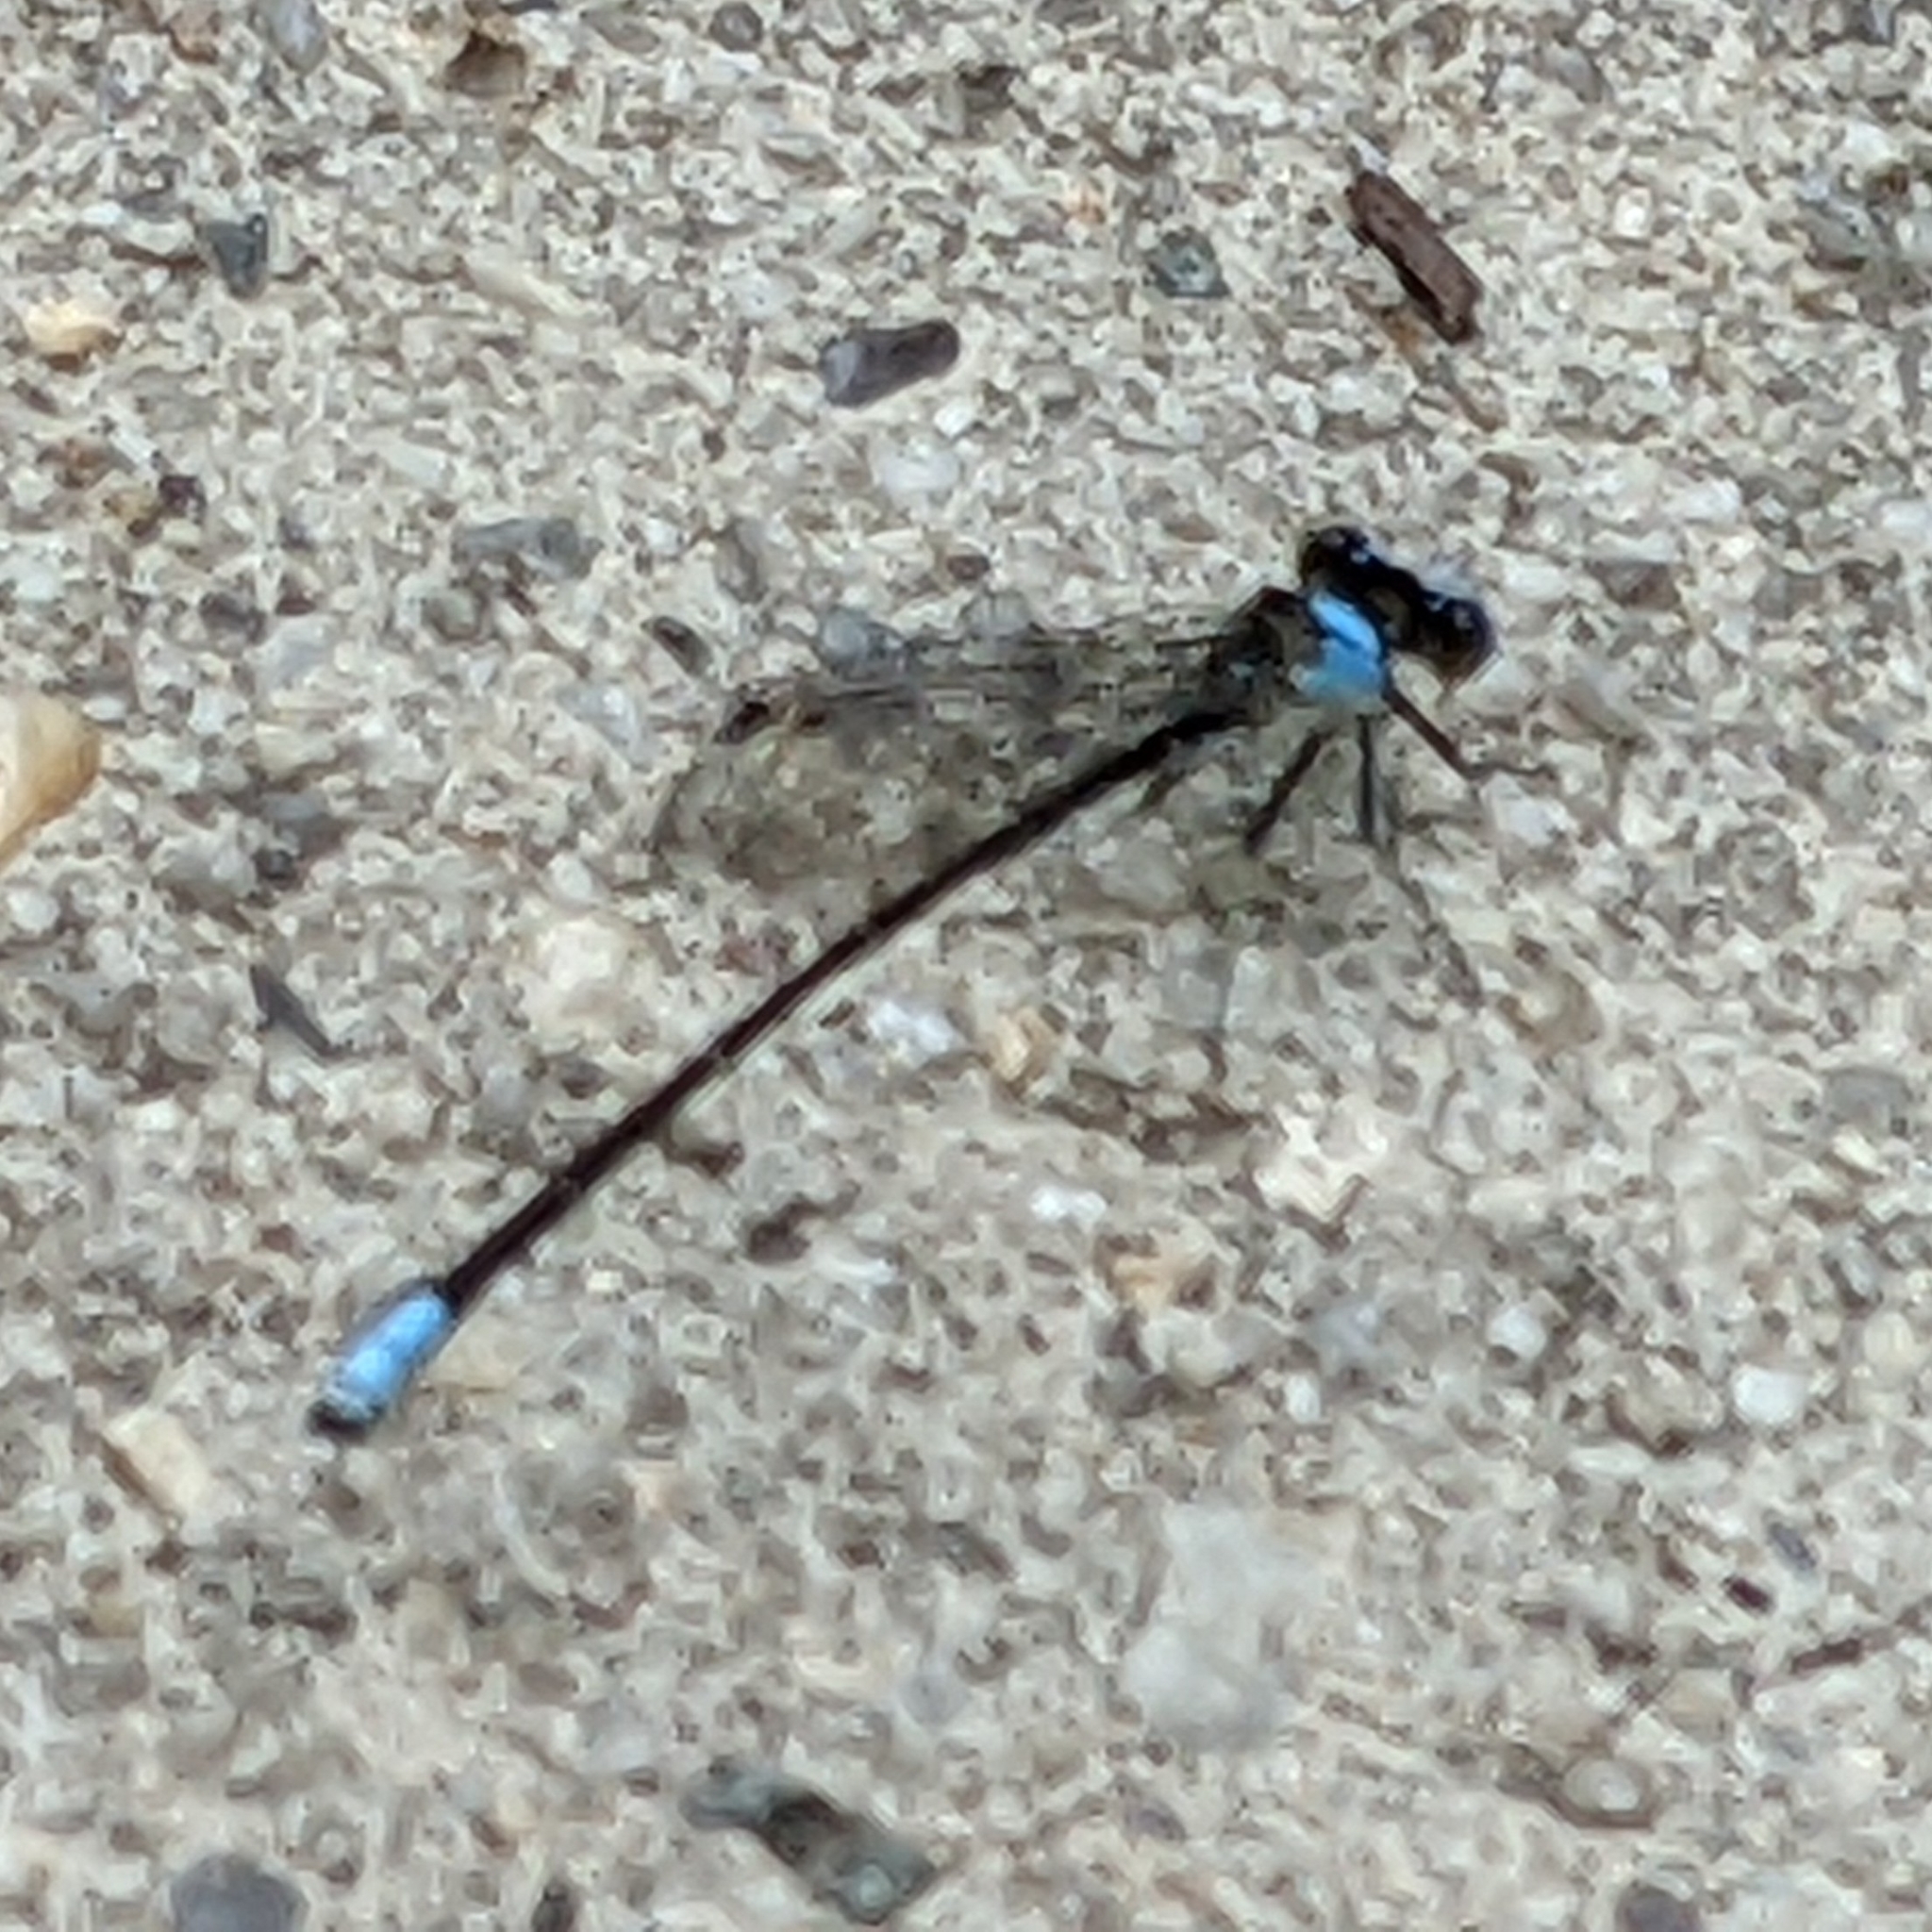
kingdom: Animalia
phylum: Arthropoda
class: Insecta
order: Odonata
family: Coenagrionidae
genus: Argia
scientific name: Argia apicalis
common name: Blue-fronted dancer
